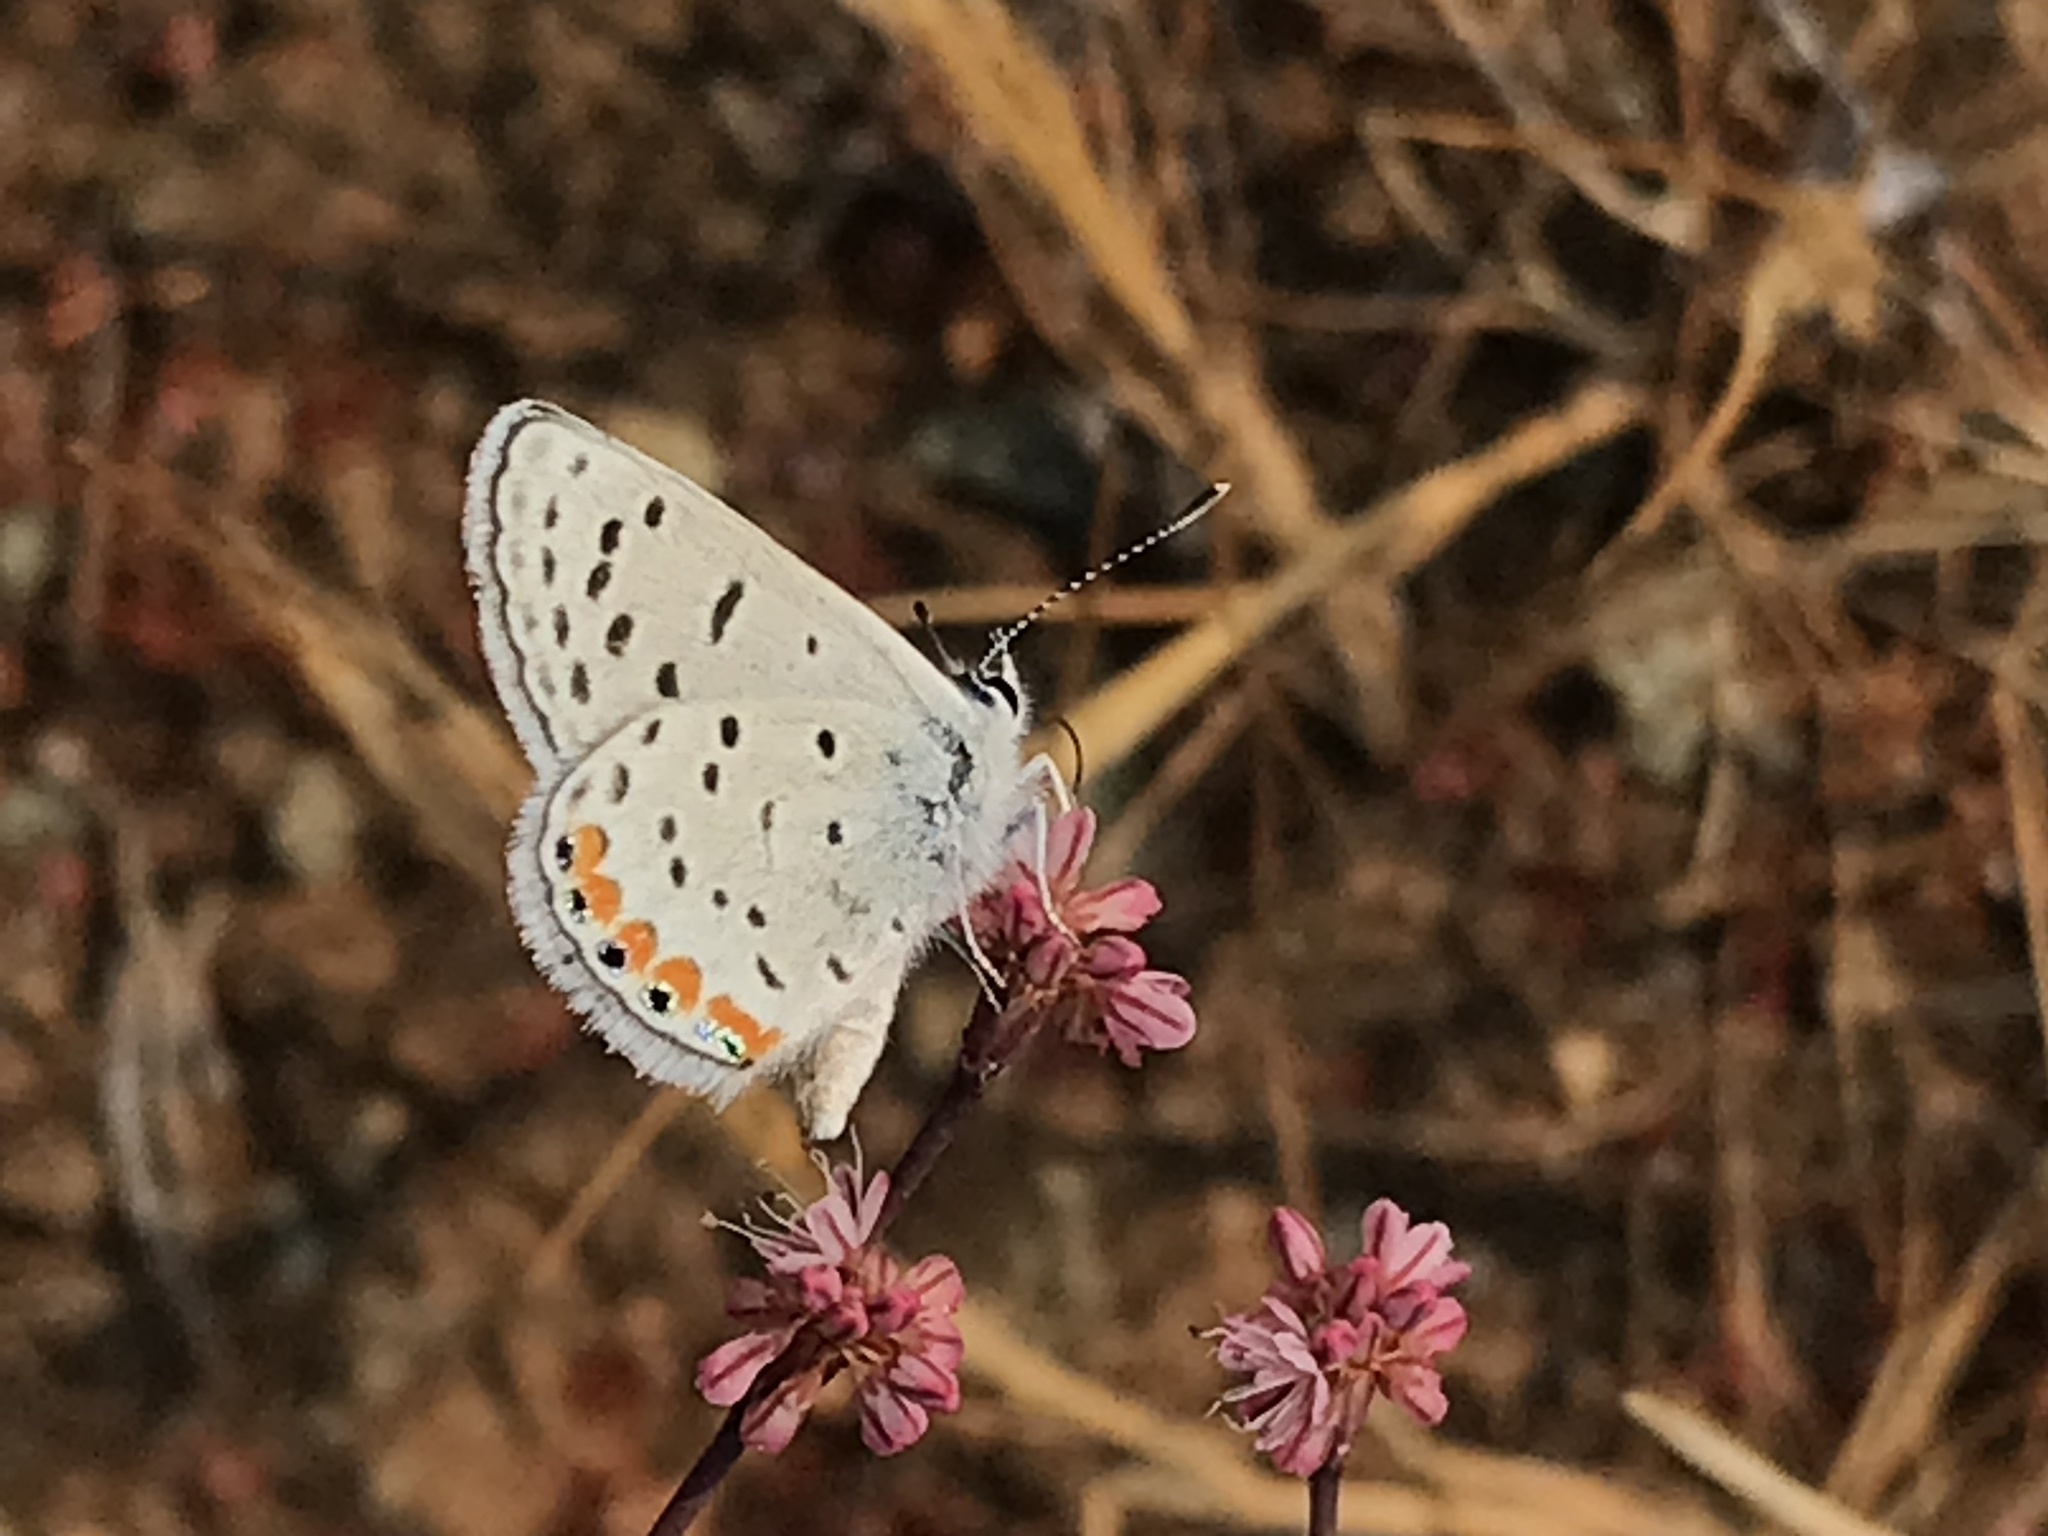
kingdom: Animalia
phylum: Arthropoda
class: Insecta
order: Lepidoptera
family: Lycaenidae
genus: Icaricia
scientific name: Icaricia acmon
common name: Acmon blue
